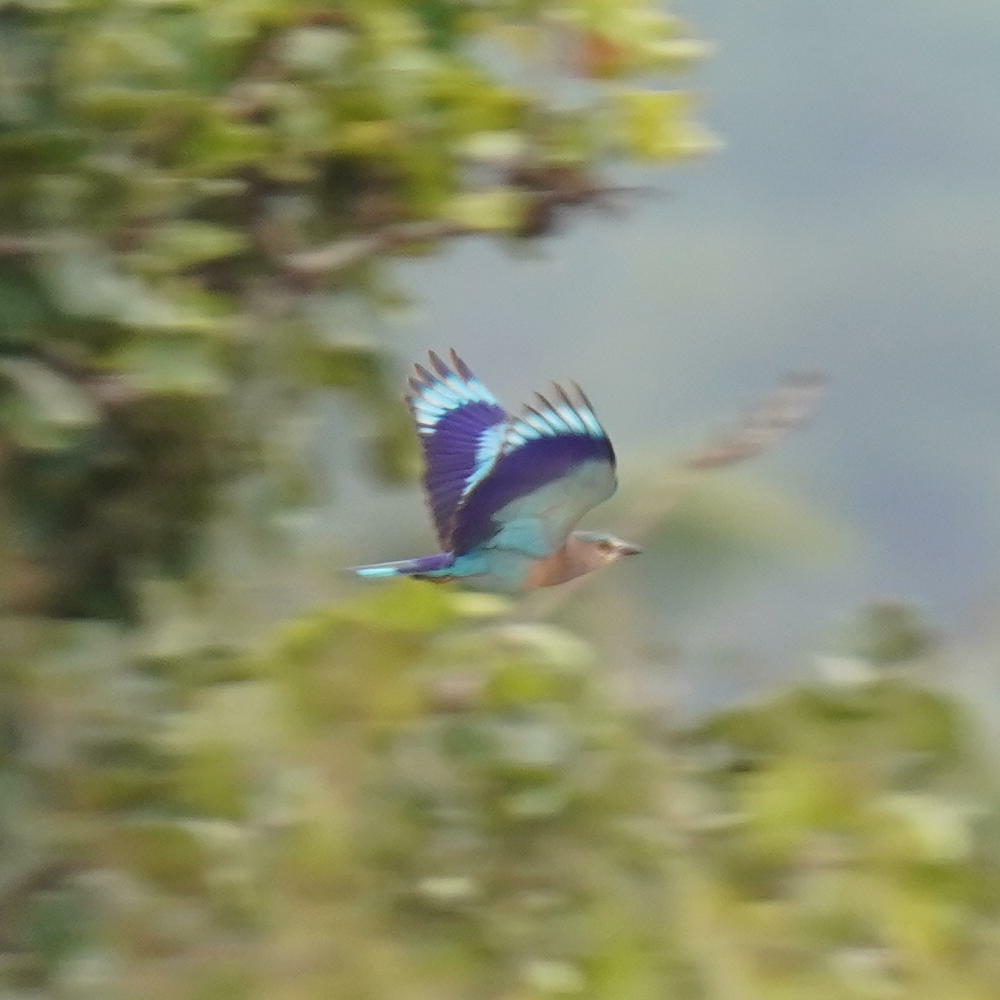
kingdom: Animalia
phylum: Chordata
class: Aves
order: Coraciiformes
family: Coraciidae
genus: Coracias
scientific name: Coracias benghalensis
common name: Indian roller
